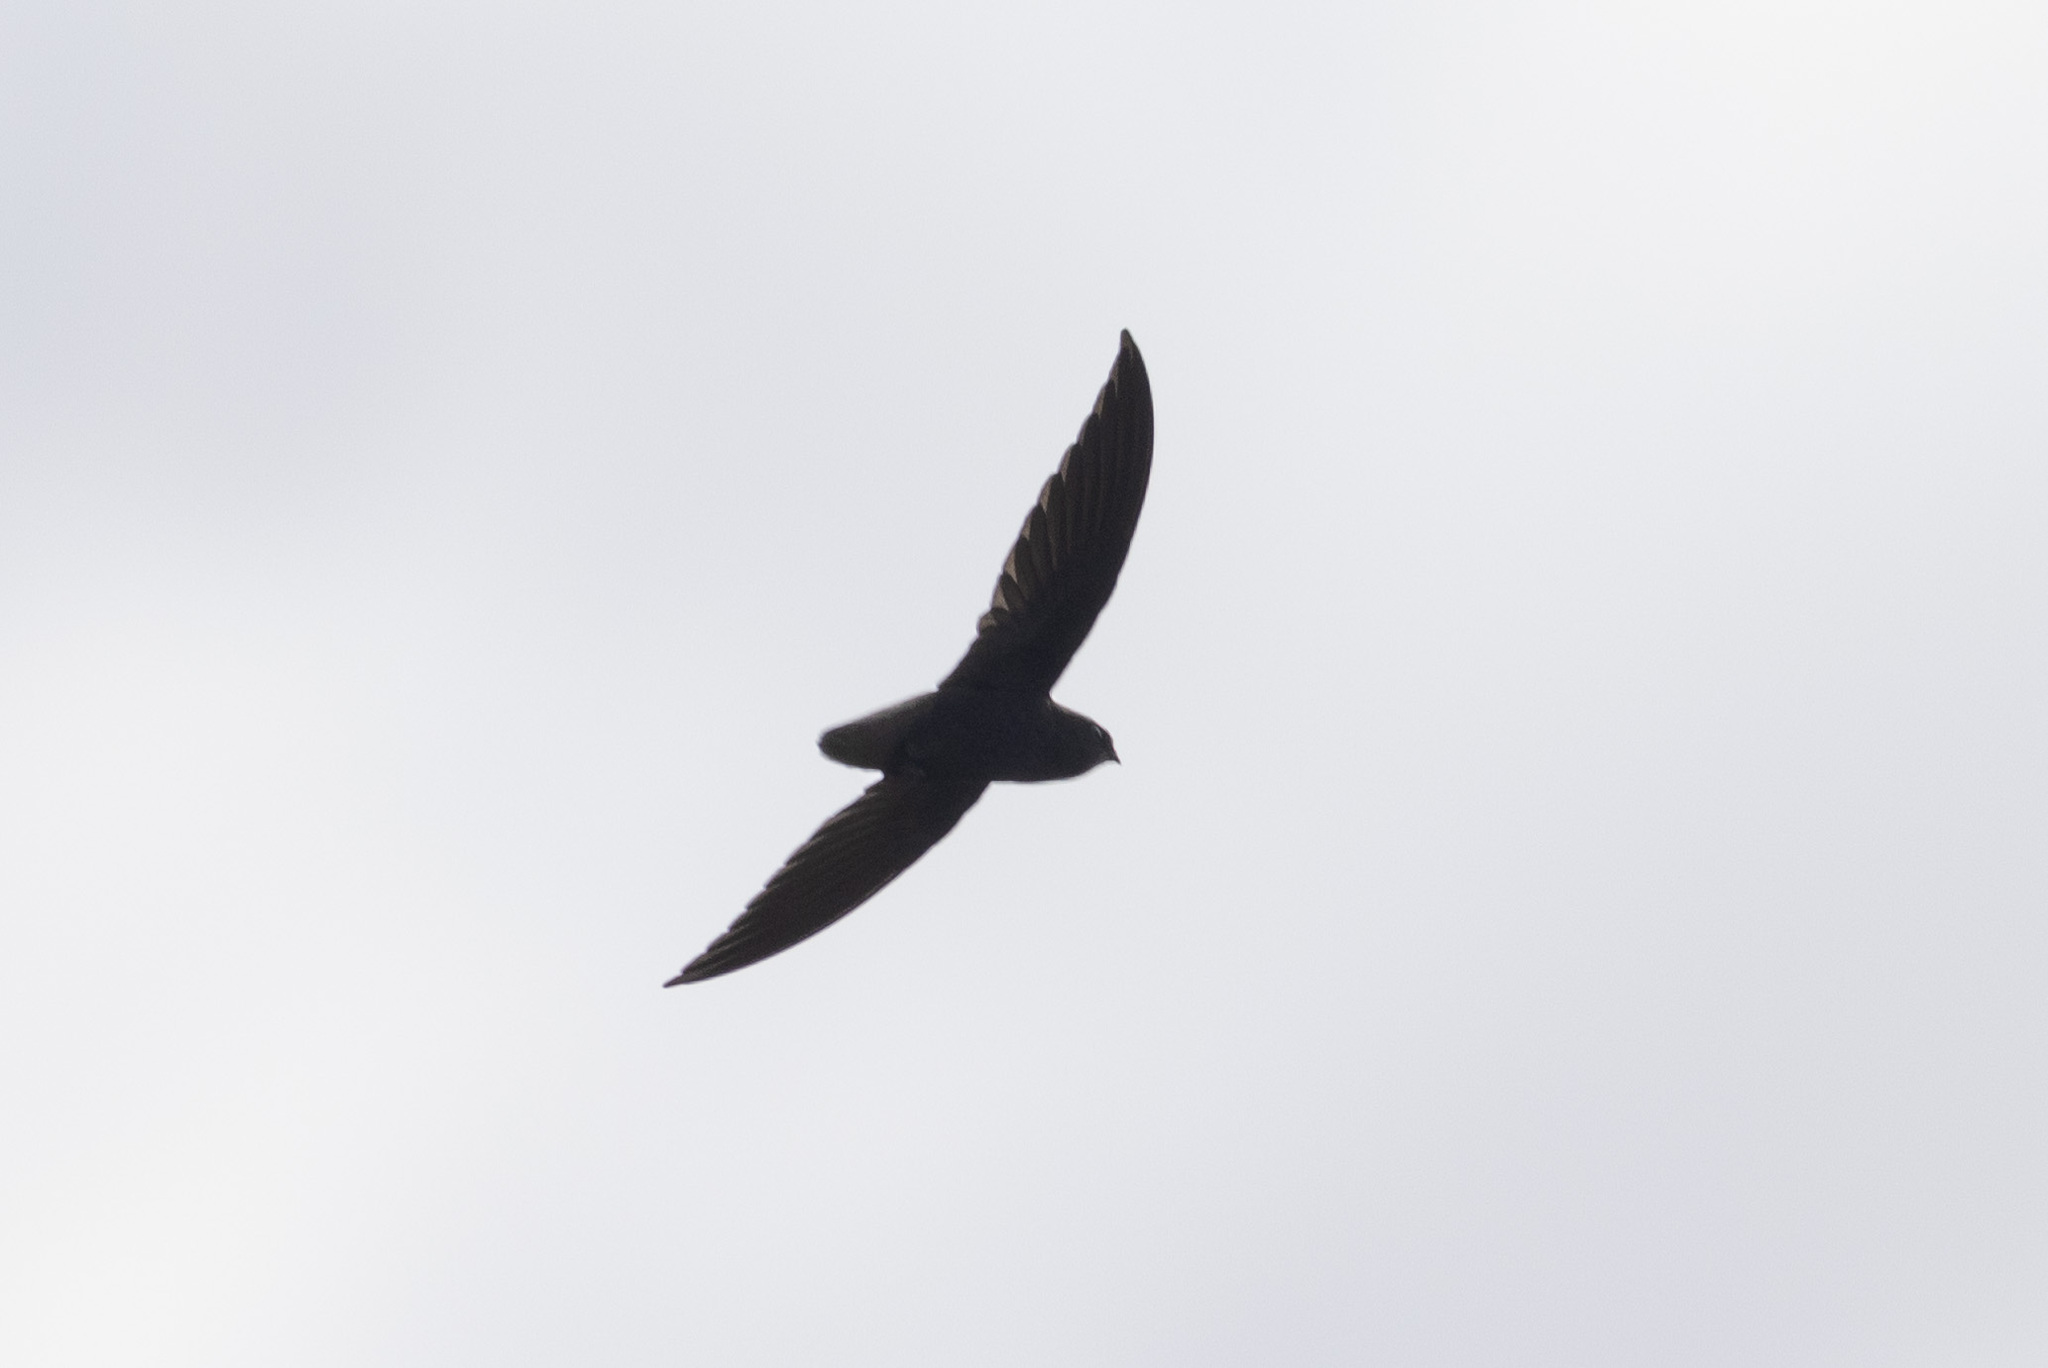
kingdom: Animalia
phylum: Chordata
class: Aves
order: Apodiformes
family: Apodidae
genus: Chaetura
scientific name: Chaetura brachyura
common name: Short-tailed swift
